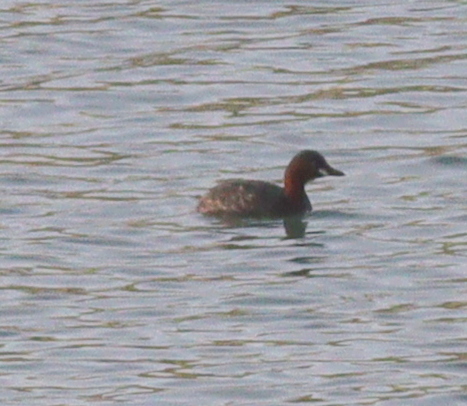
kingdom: Animalia
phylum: Chordata
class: Aves
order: Podicipediformes
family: Podicipedidae
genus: Tachybaptus
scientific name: Tachybaptus ruficollis
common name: Little grebe
